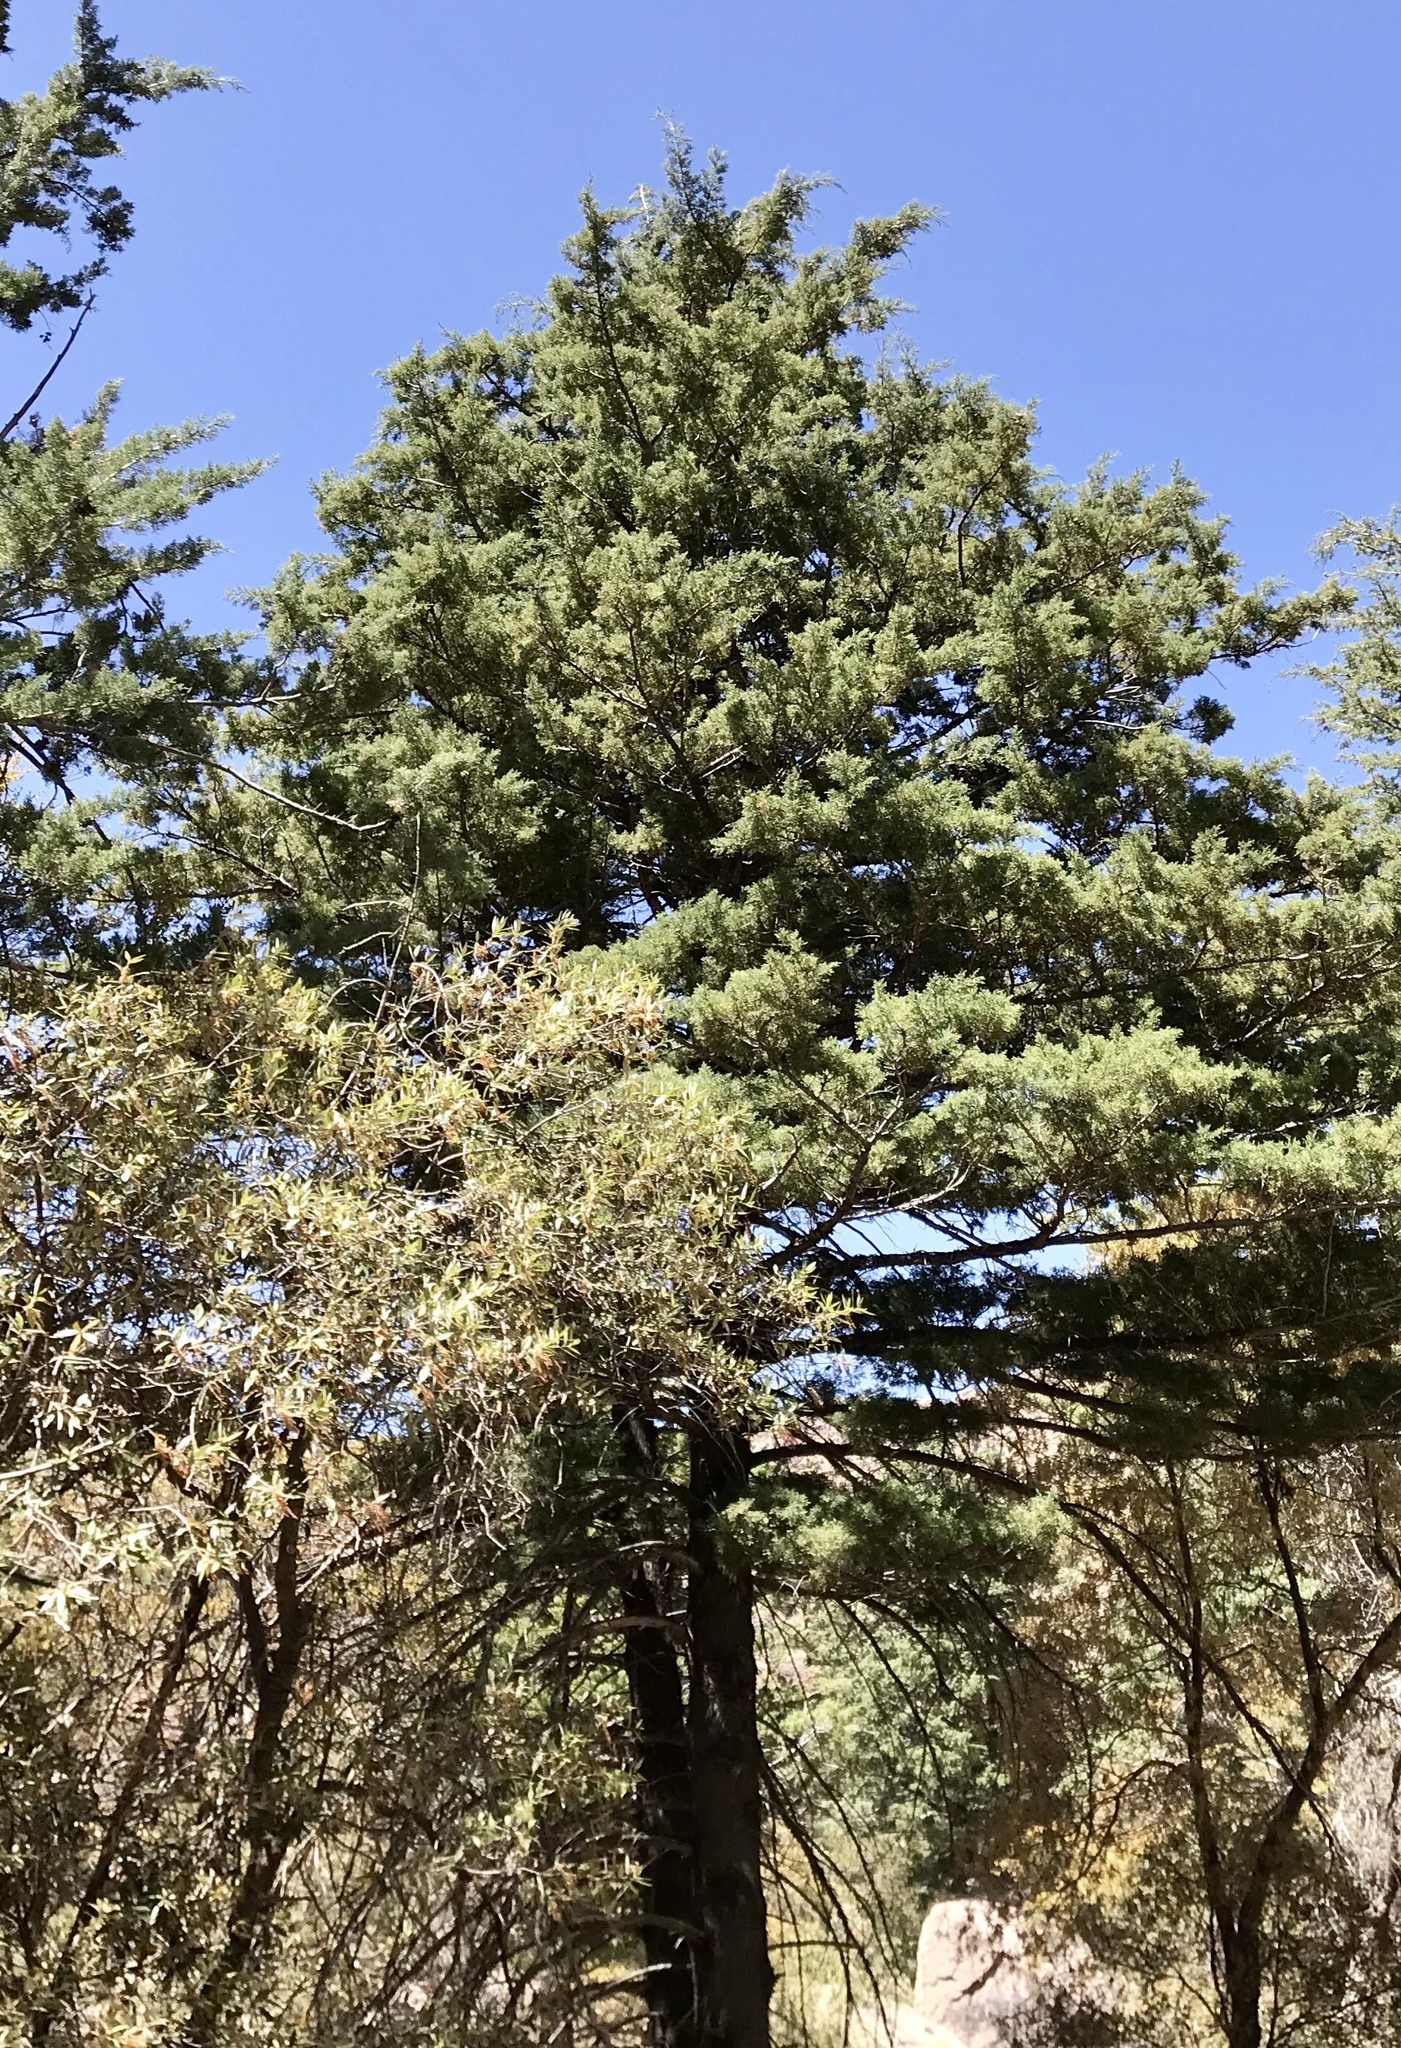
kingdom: Plantae
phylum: Tracheophyta
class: Pinopsida
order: Pinales
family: Cupressaceae
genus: Cupressus
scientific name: Cupressus arizonica
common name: Arizona cypress
